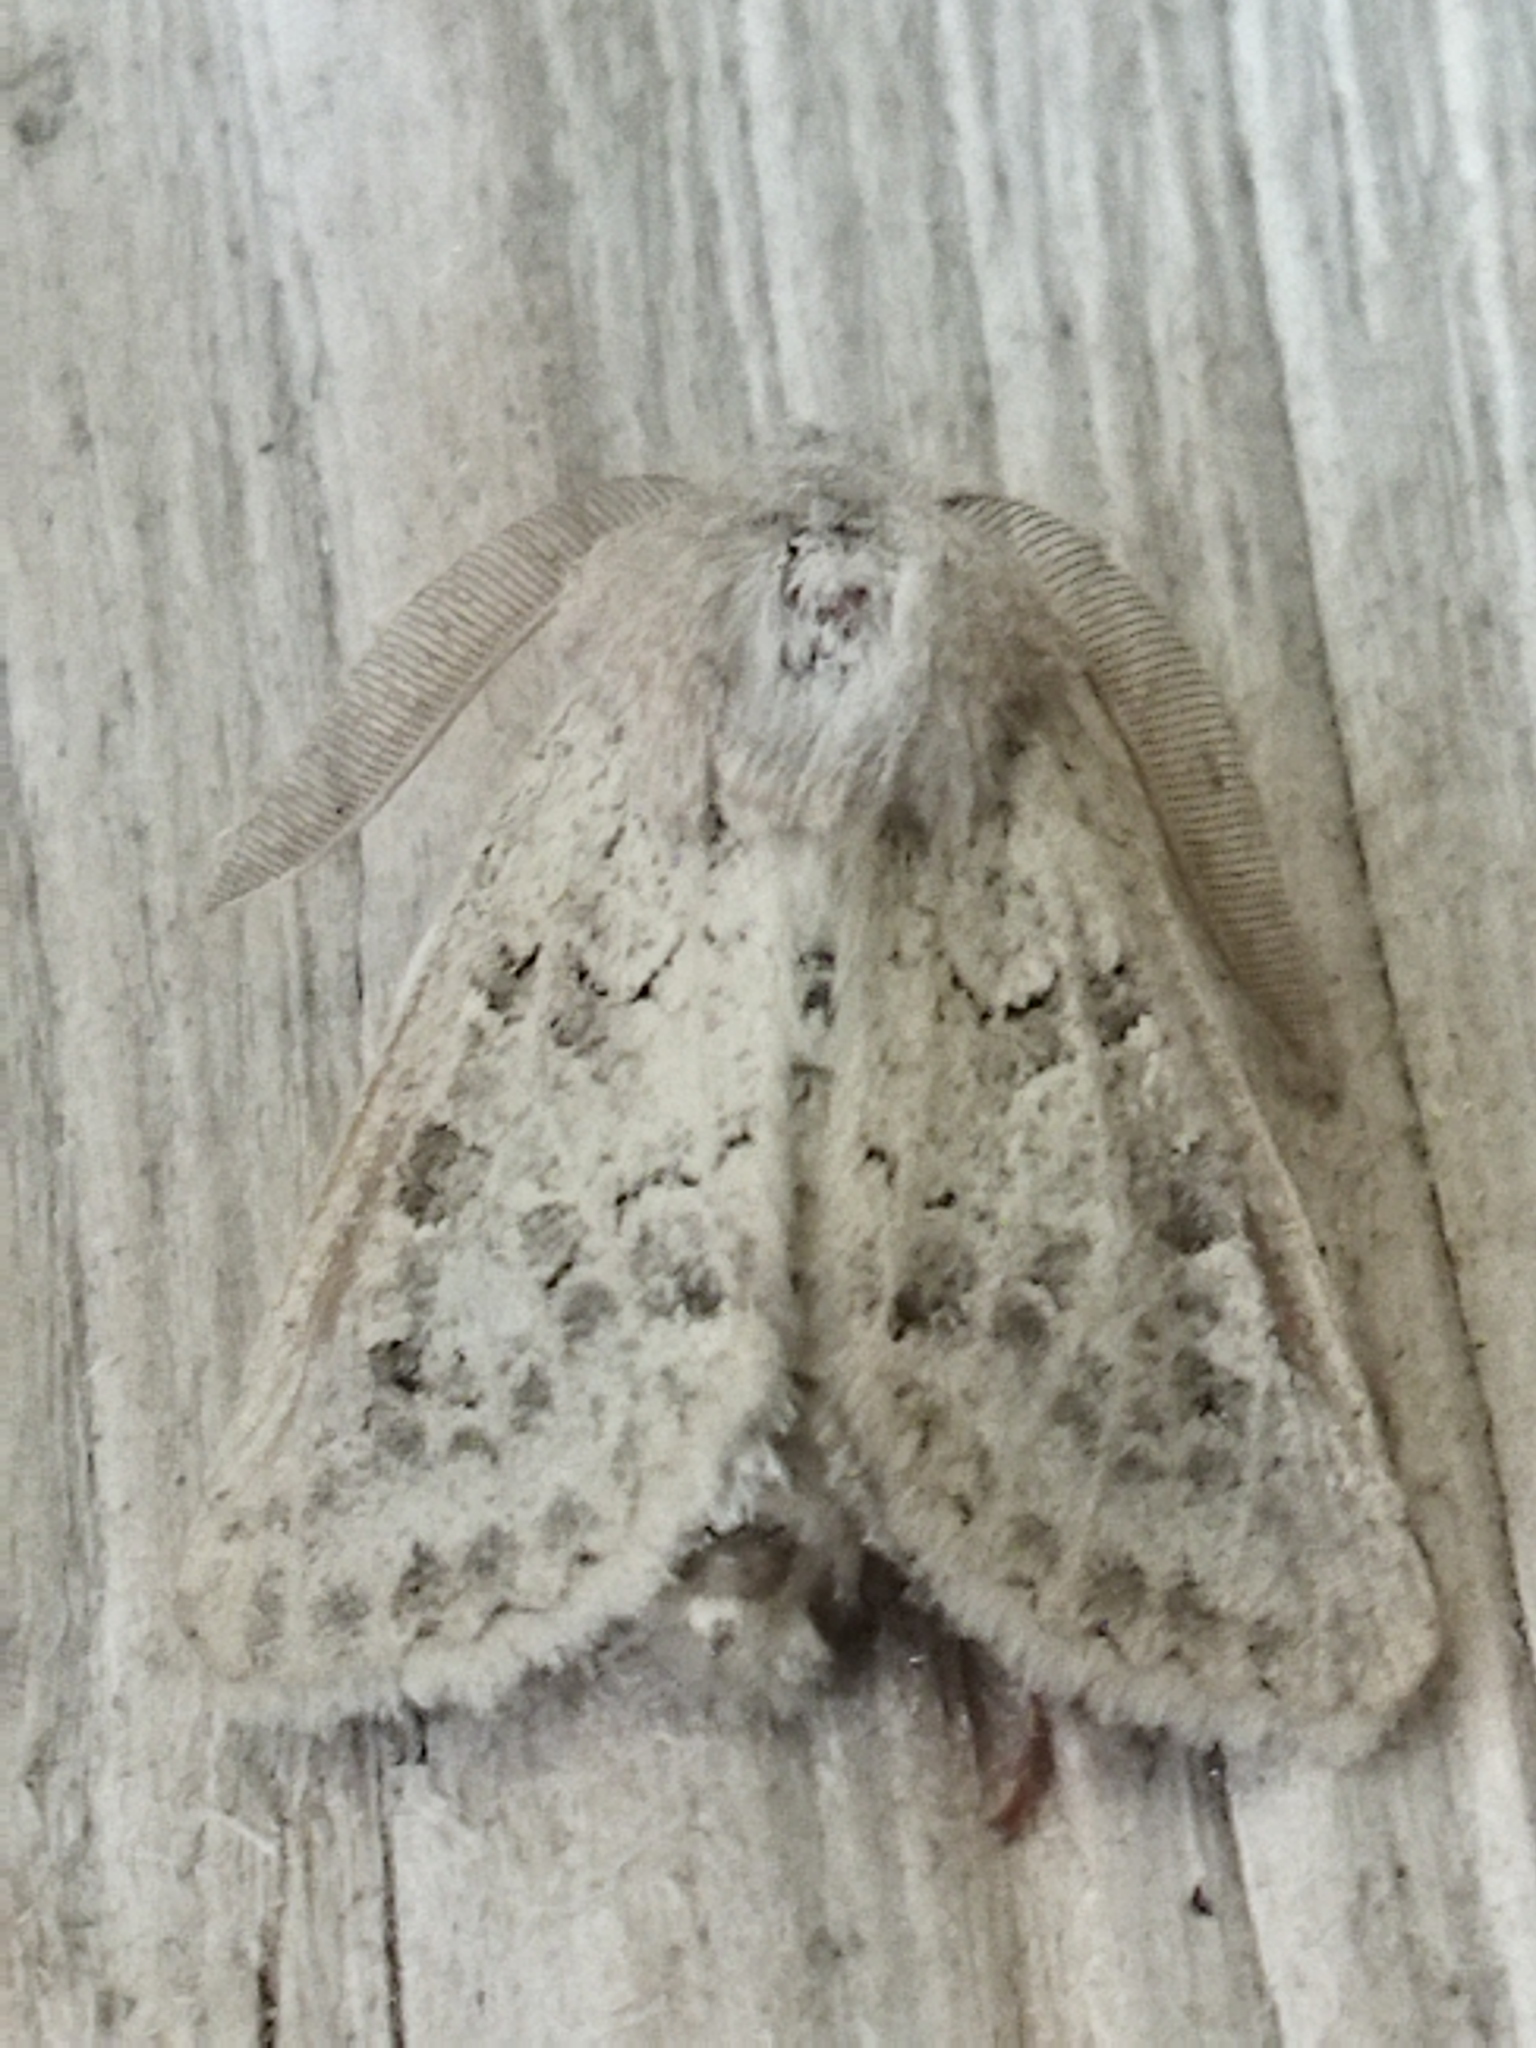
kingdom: Animalia
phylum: Arthropoda
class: Insecta
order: Lepidoptera
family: Noctuidae
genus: Episema
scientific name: Episema lederi
